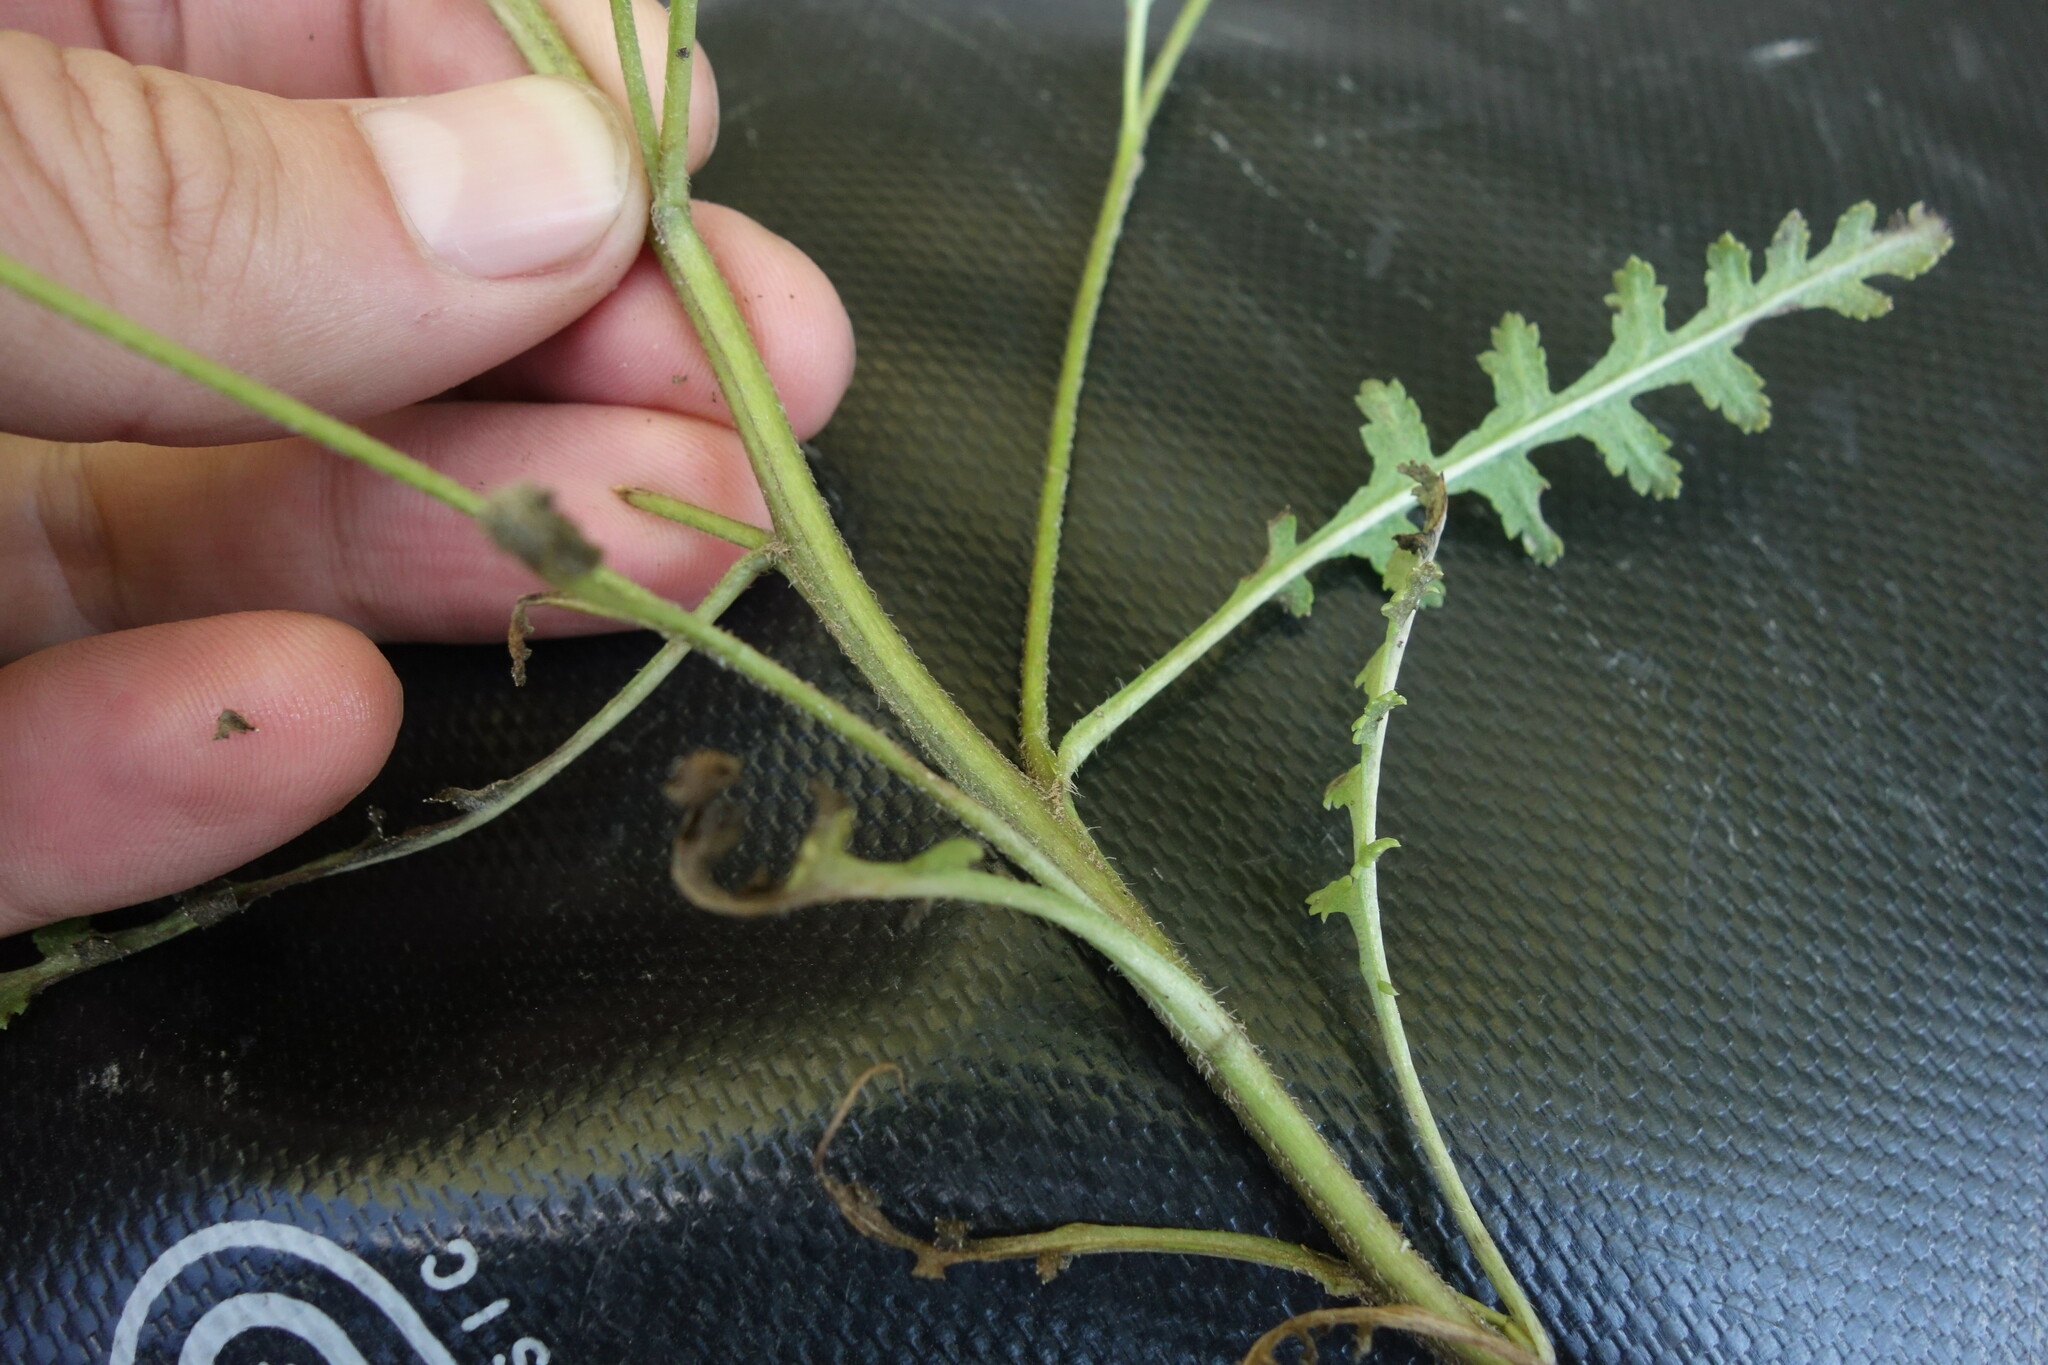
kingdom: Plantae
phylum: Tracheophyta
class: Magnoliopsida
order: Lamiales
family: Orobanchaceae
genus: Pedicularis
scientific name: Pedicularis labradorica
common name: Labrador lousewort
